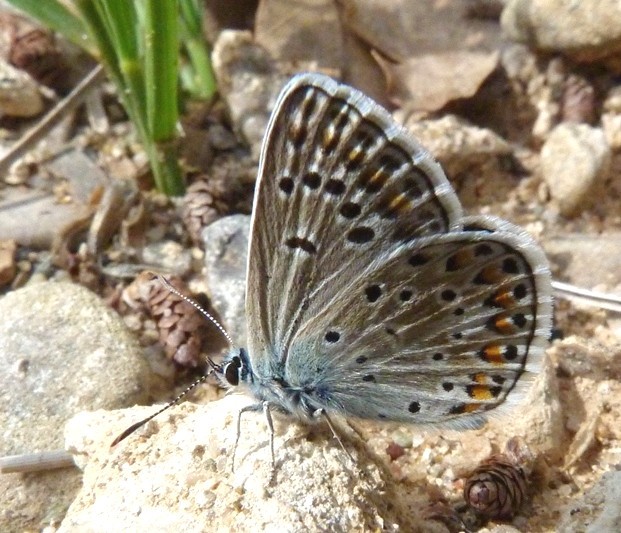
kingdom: Animalia
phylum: Arthropoda
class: Insecta
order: Lepidoptera
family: Lycaenidae
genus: Plebicula
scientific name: Plebicula escheri
